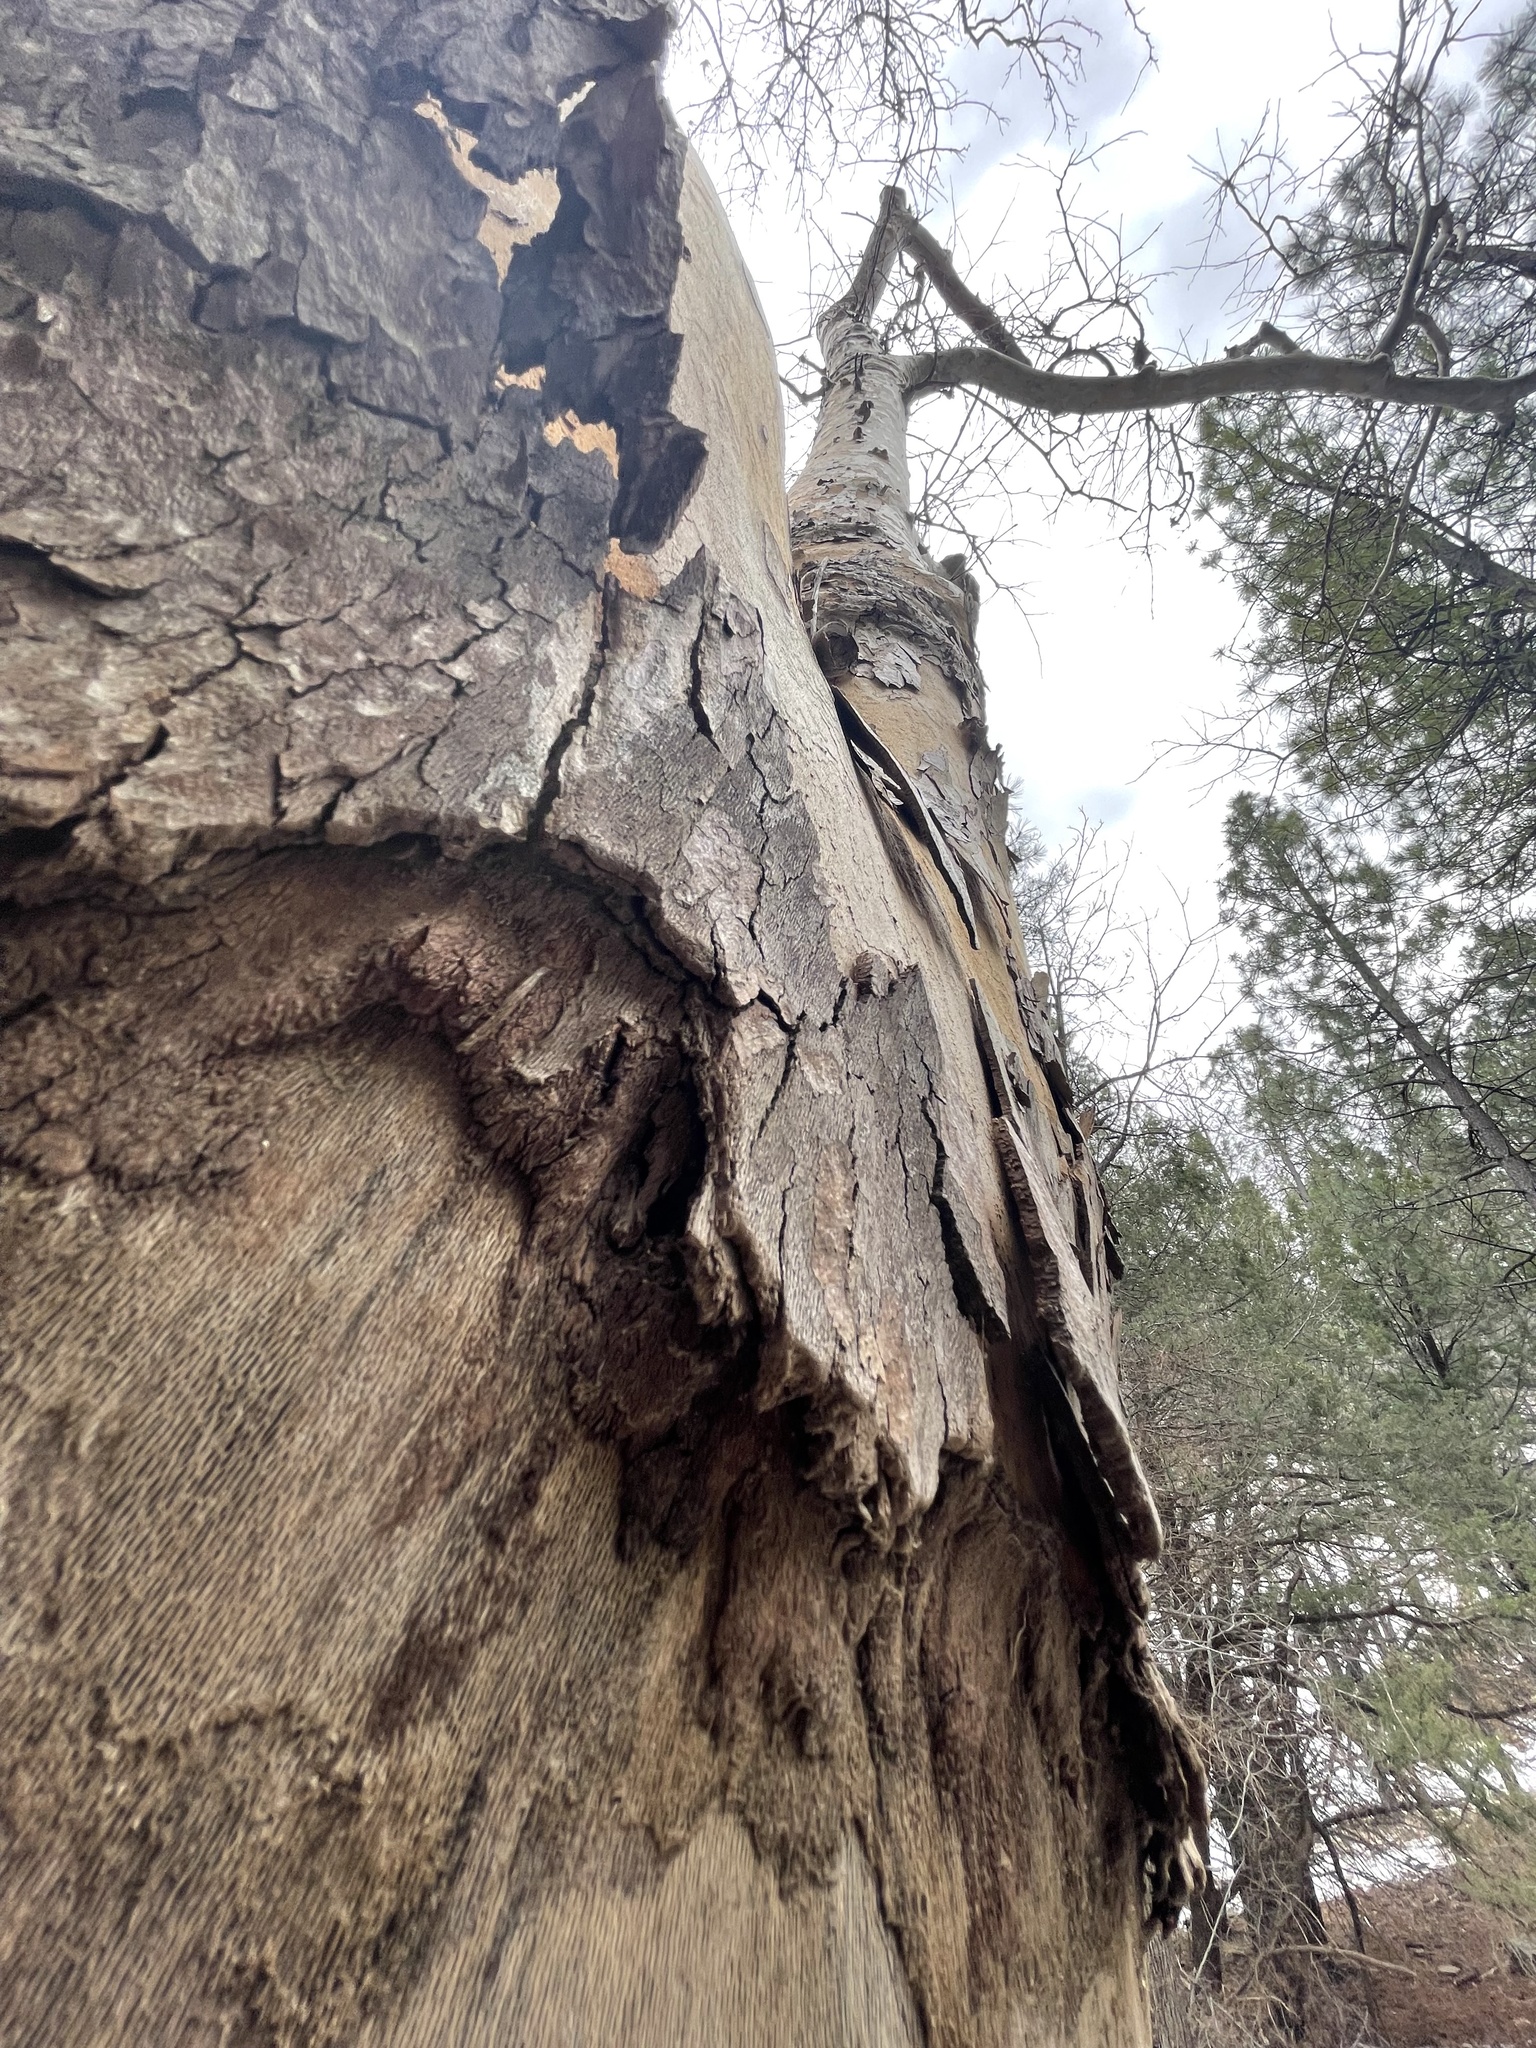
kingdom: Plantae
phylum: Tracheophyta
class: Magnoliopsida
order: Proteales
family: Platanaceae
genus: Platanus
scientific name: Platanus wrightii
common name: Arizona sycamore
